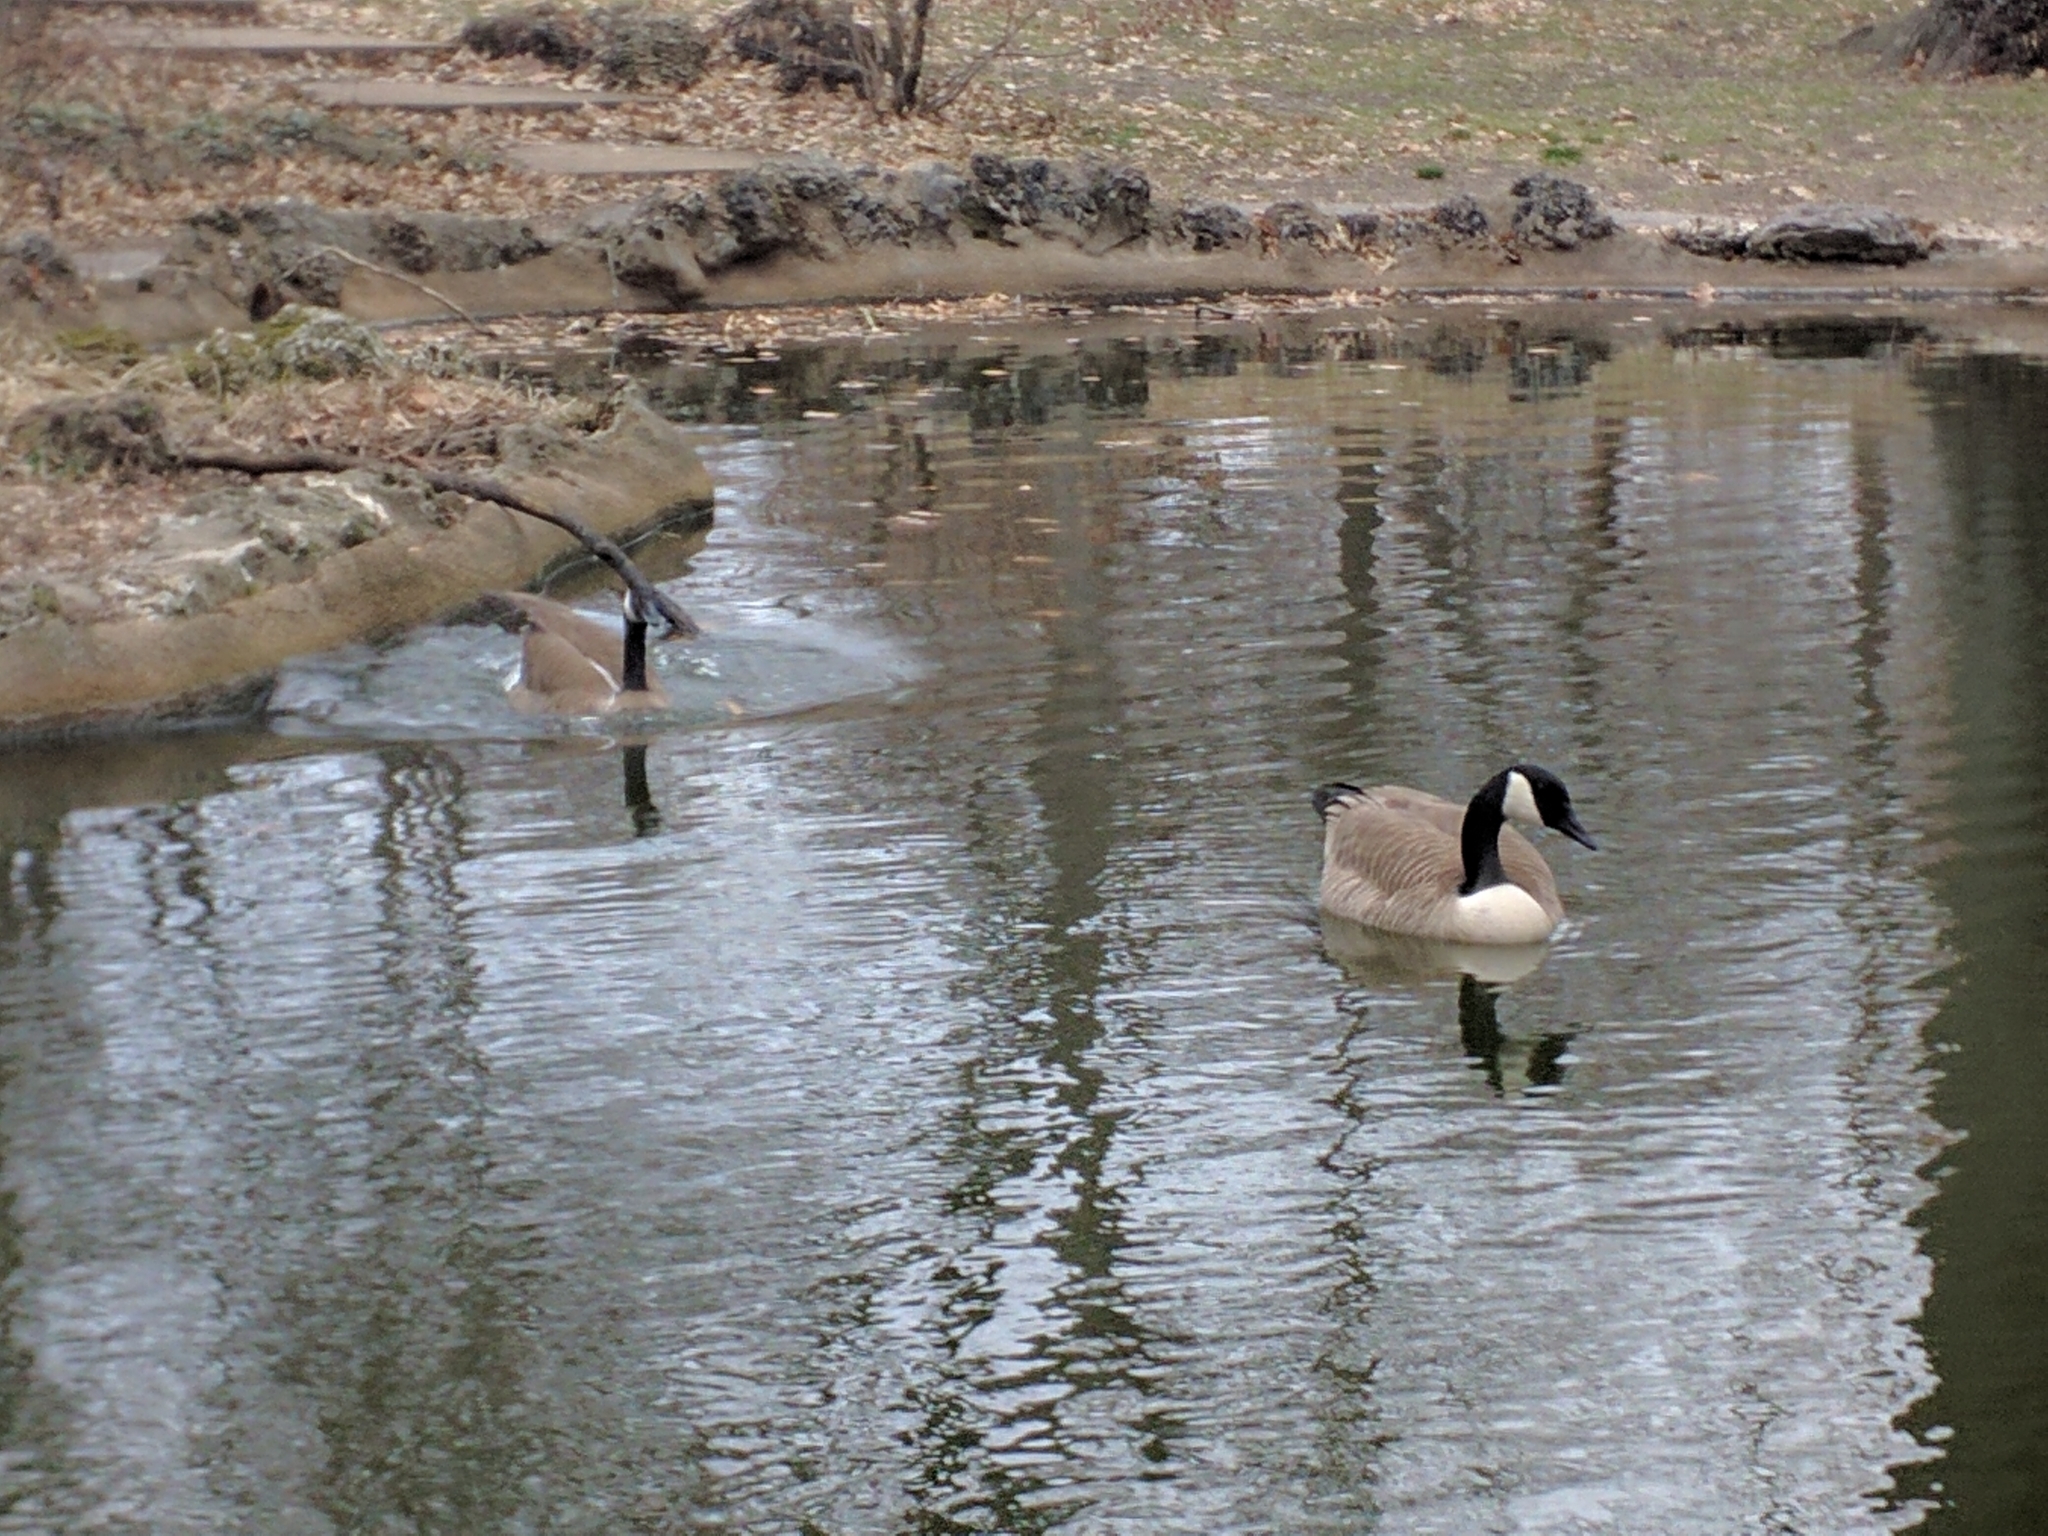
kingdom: Animalia
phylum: Chordata
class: Aves
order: Anseriformes
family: Anatidae
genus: Branta
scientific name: Branta canadensis
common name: Canada goose
